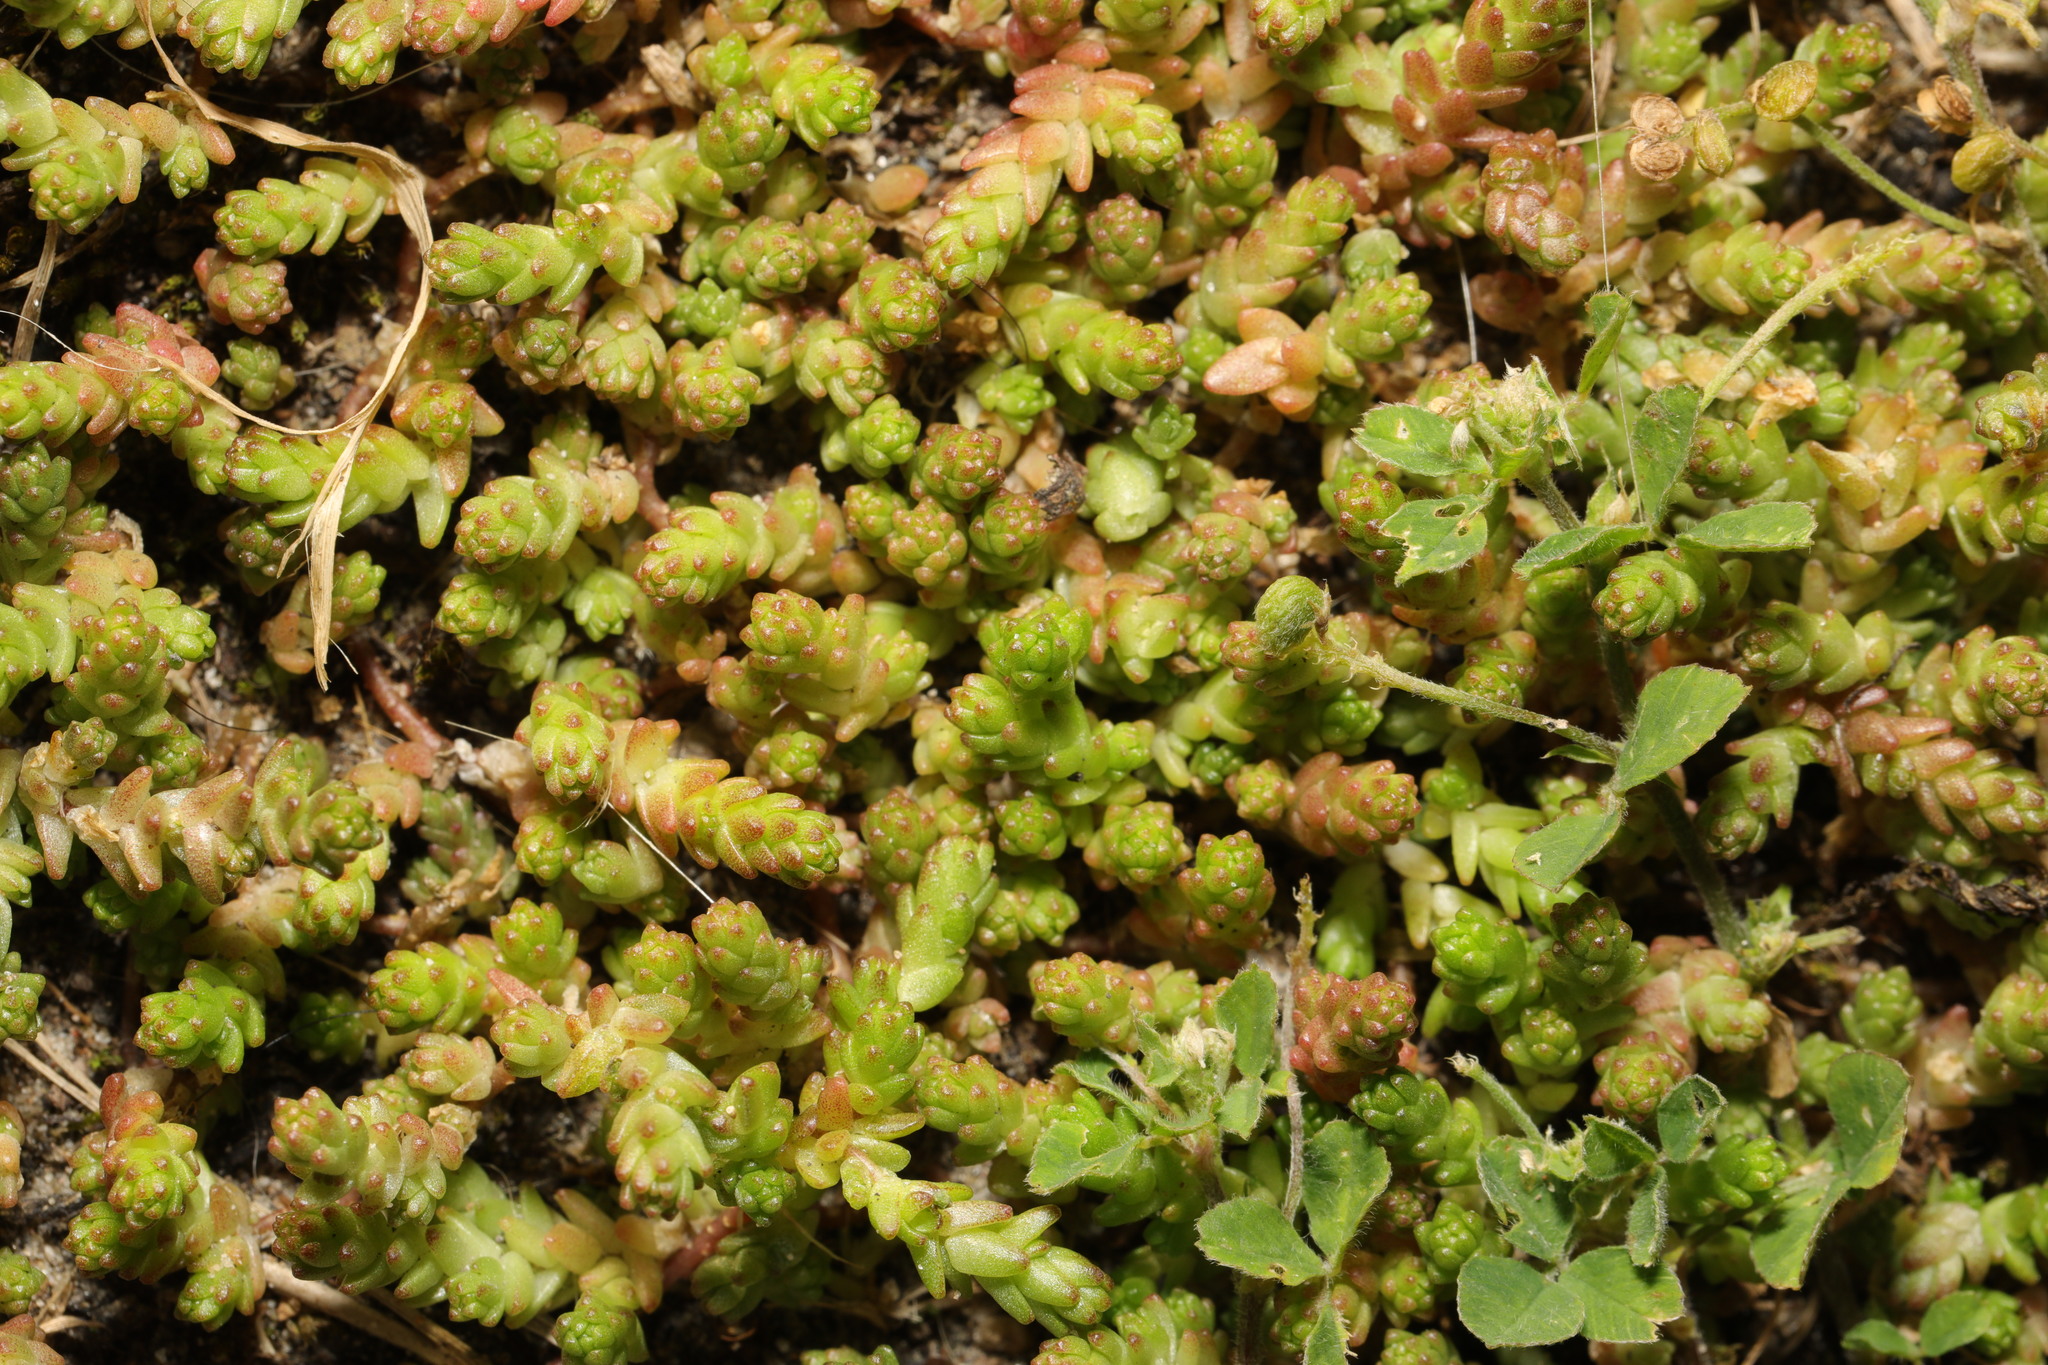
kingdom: Plantae
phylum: Tracheophyta
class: Magnoliopsida
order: Saxifragales
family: Crassulaceae
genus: Sedum
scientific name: Sedum acre
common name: Biting stonecrop
